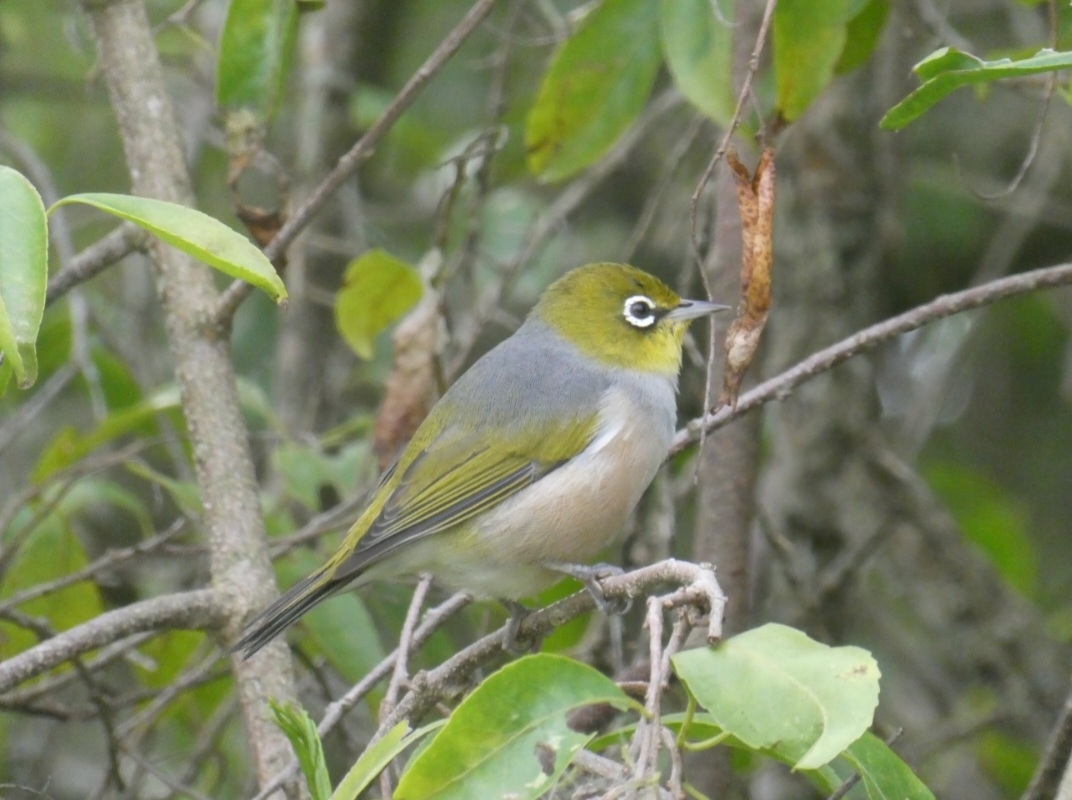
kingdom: Animalia
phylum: Chordata
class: Aves
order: Passeriformes
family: Zosteropidae
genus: Zosterops
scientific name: Zosterops lateralis
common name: Silvereye
